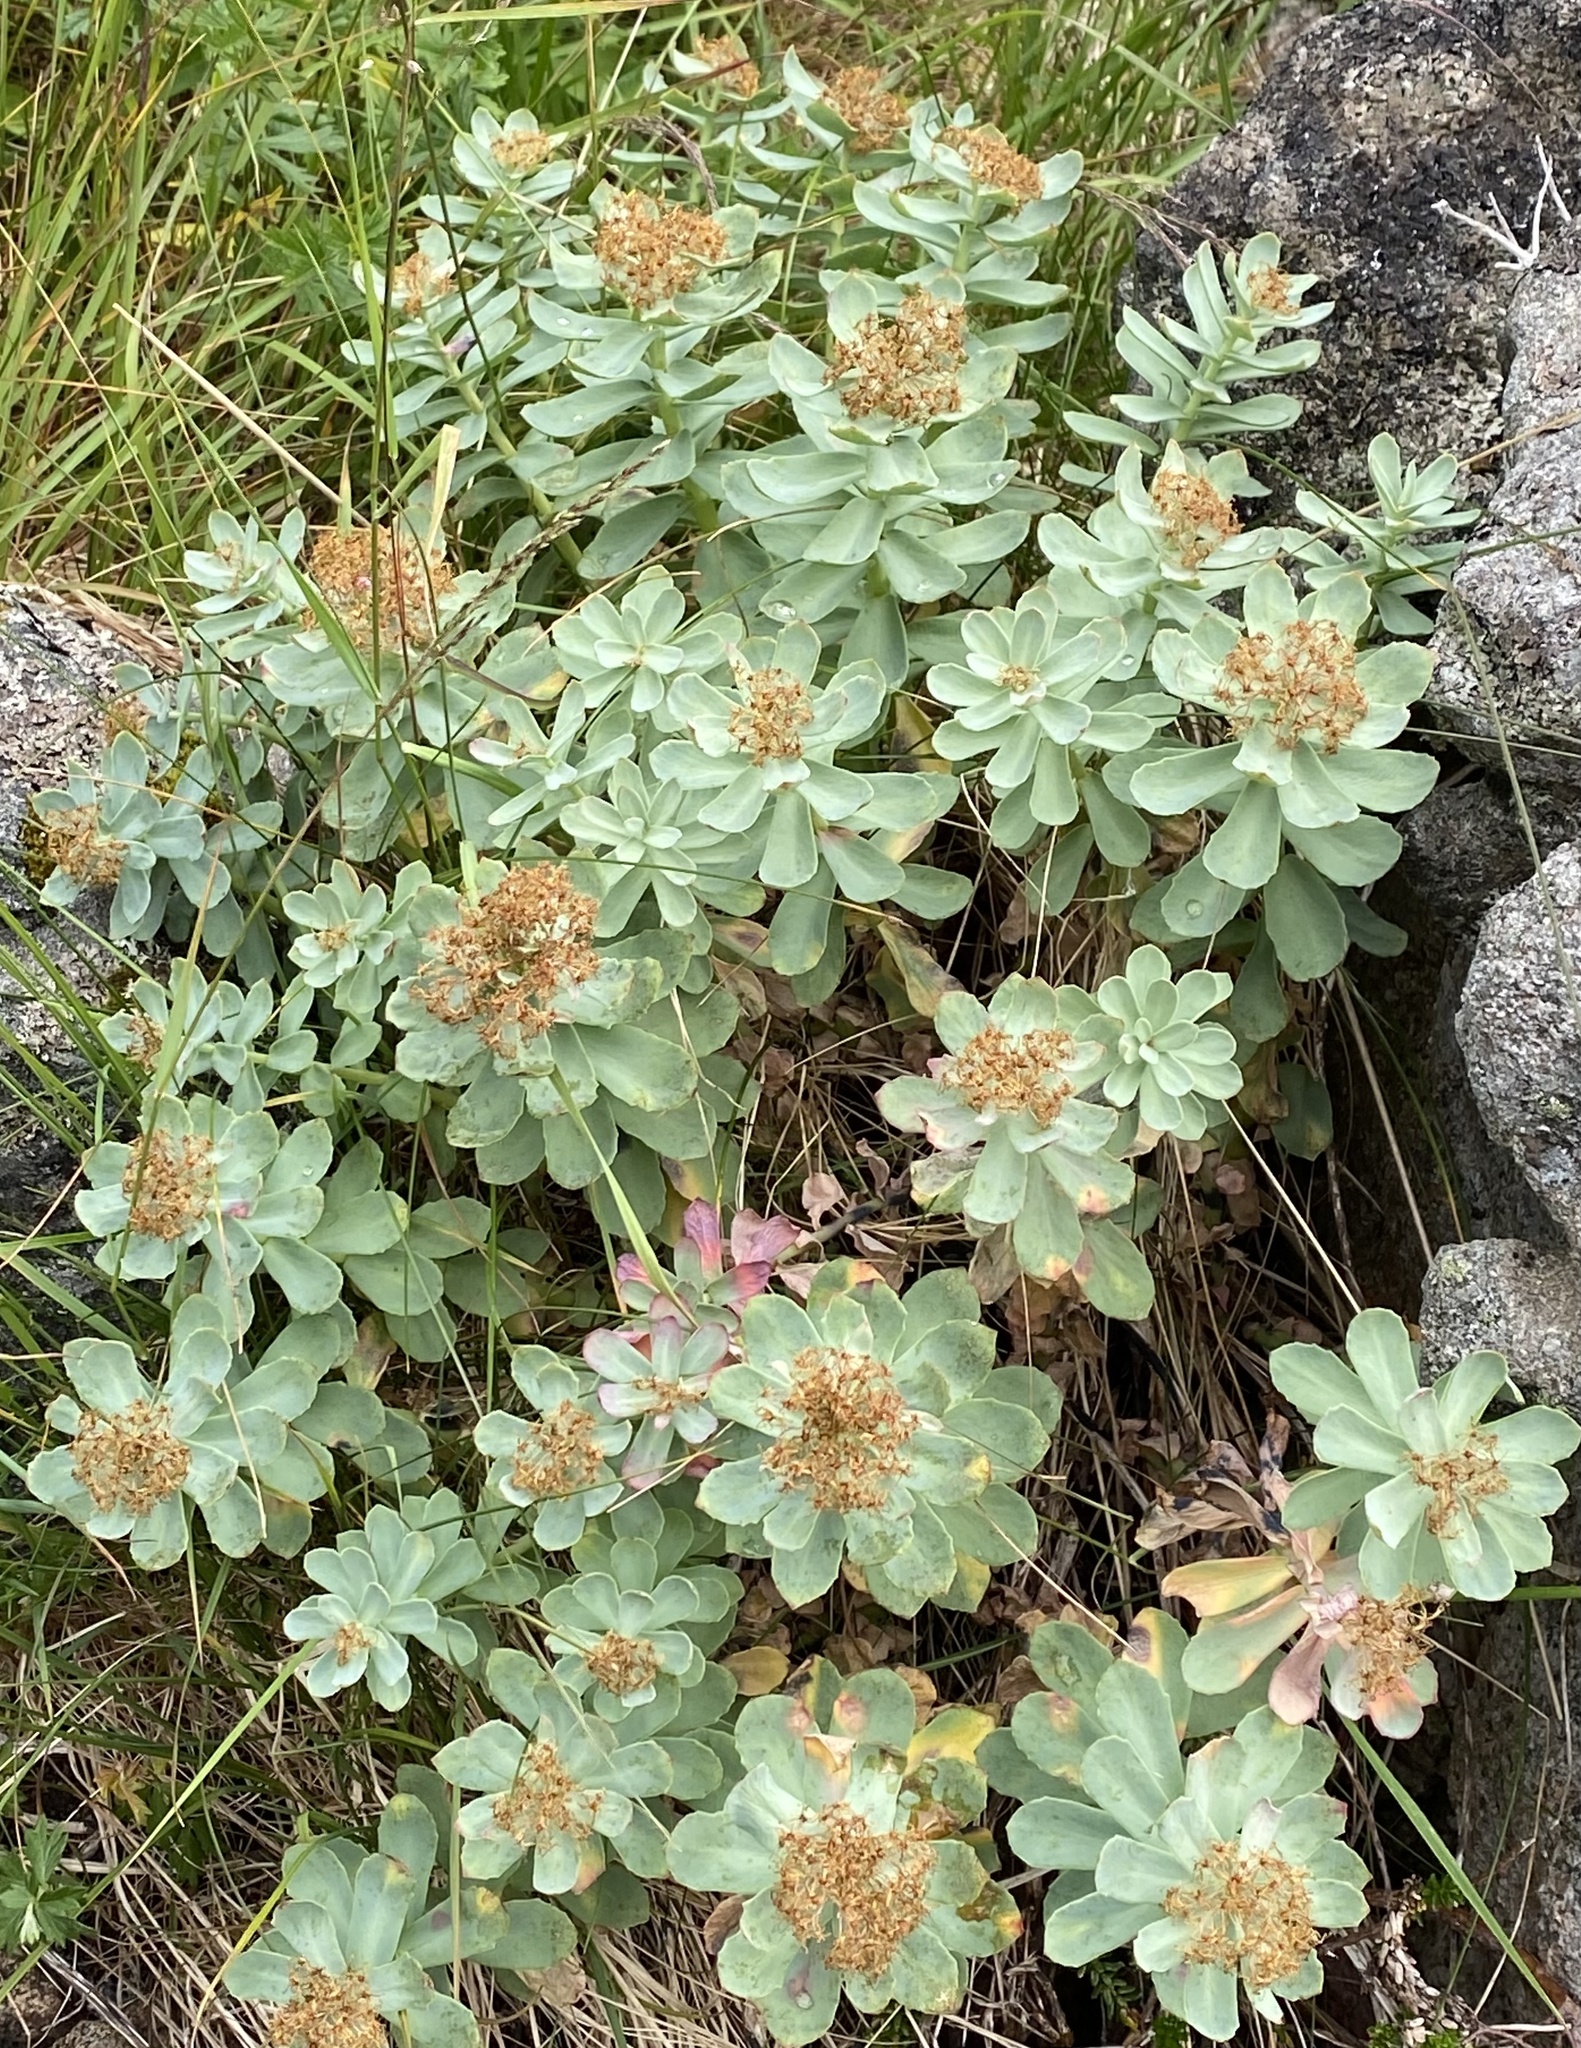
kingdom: Plantae
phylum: Tracheophyta
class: Magnoliopsida
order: Saxifragales
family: Crassulaceae
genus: Rhodiola
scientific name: Rhodiola rosea
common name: Roseroot
